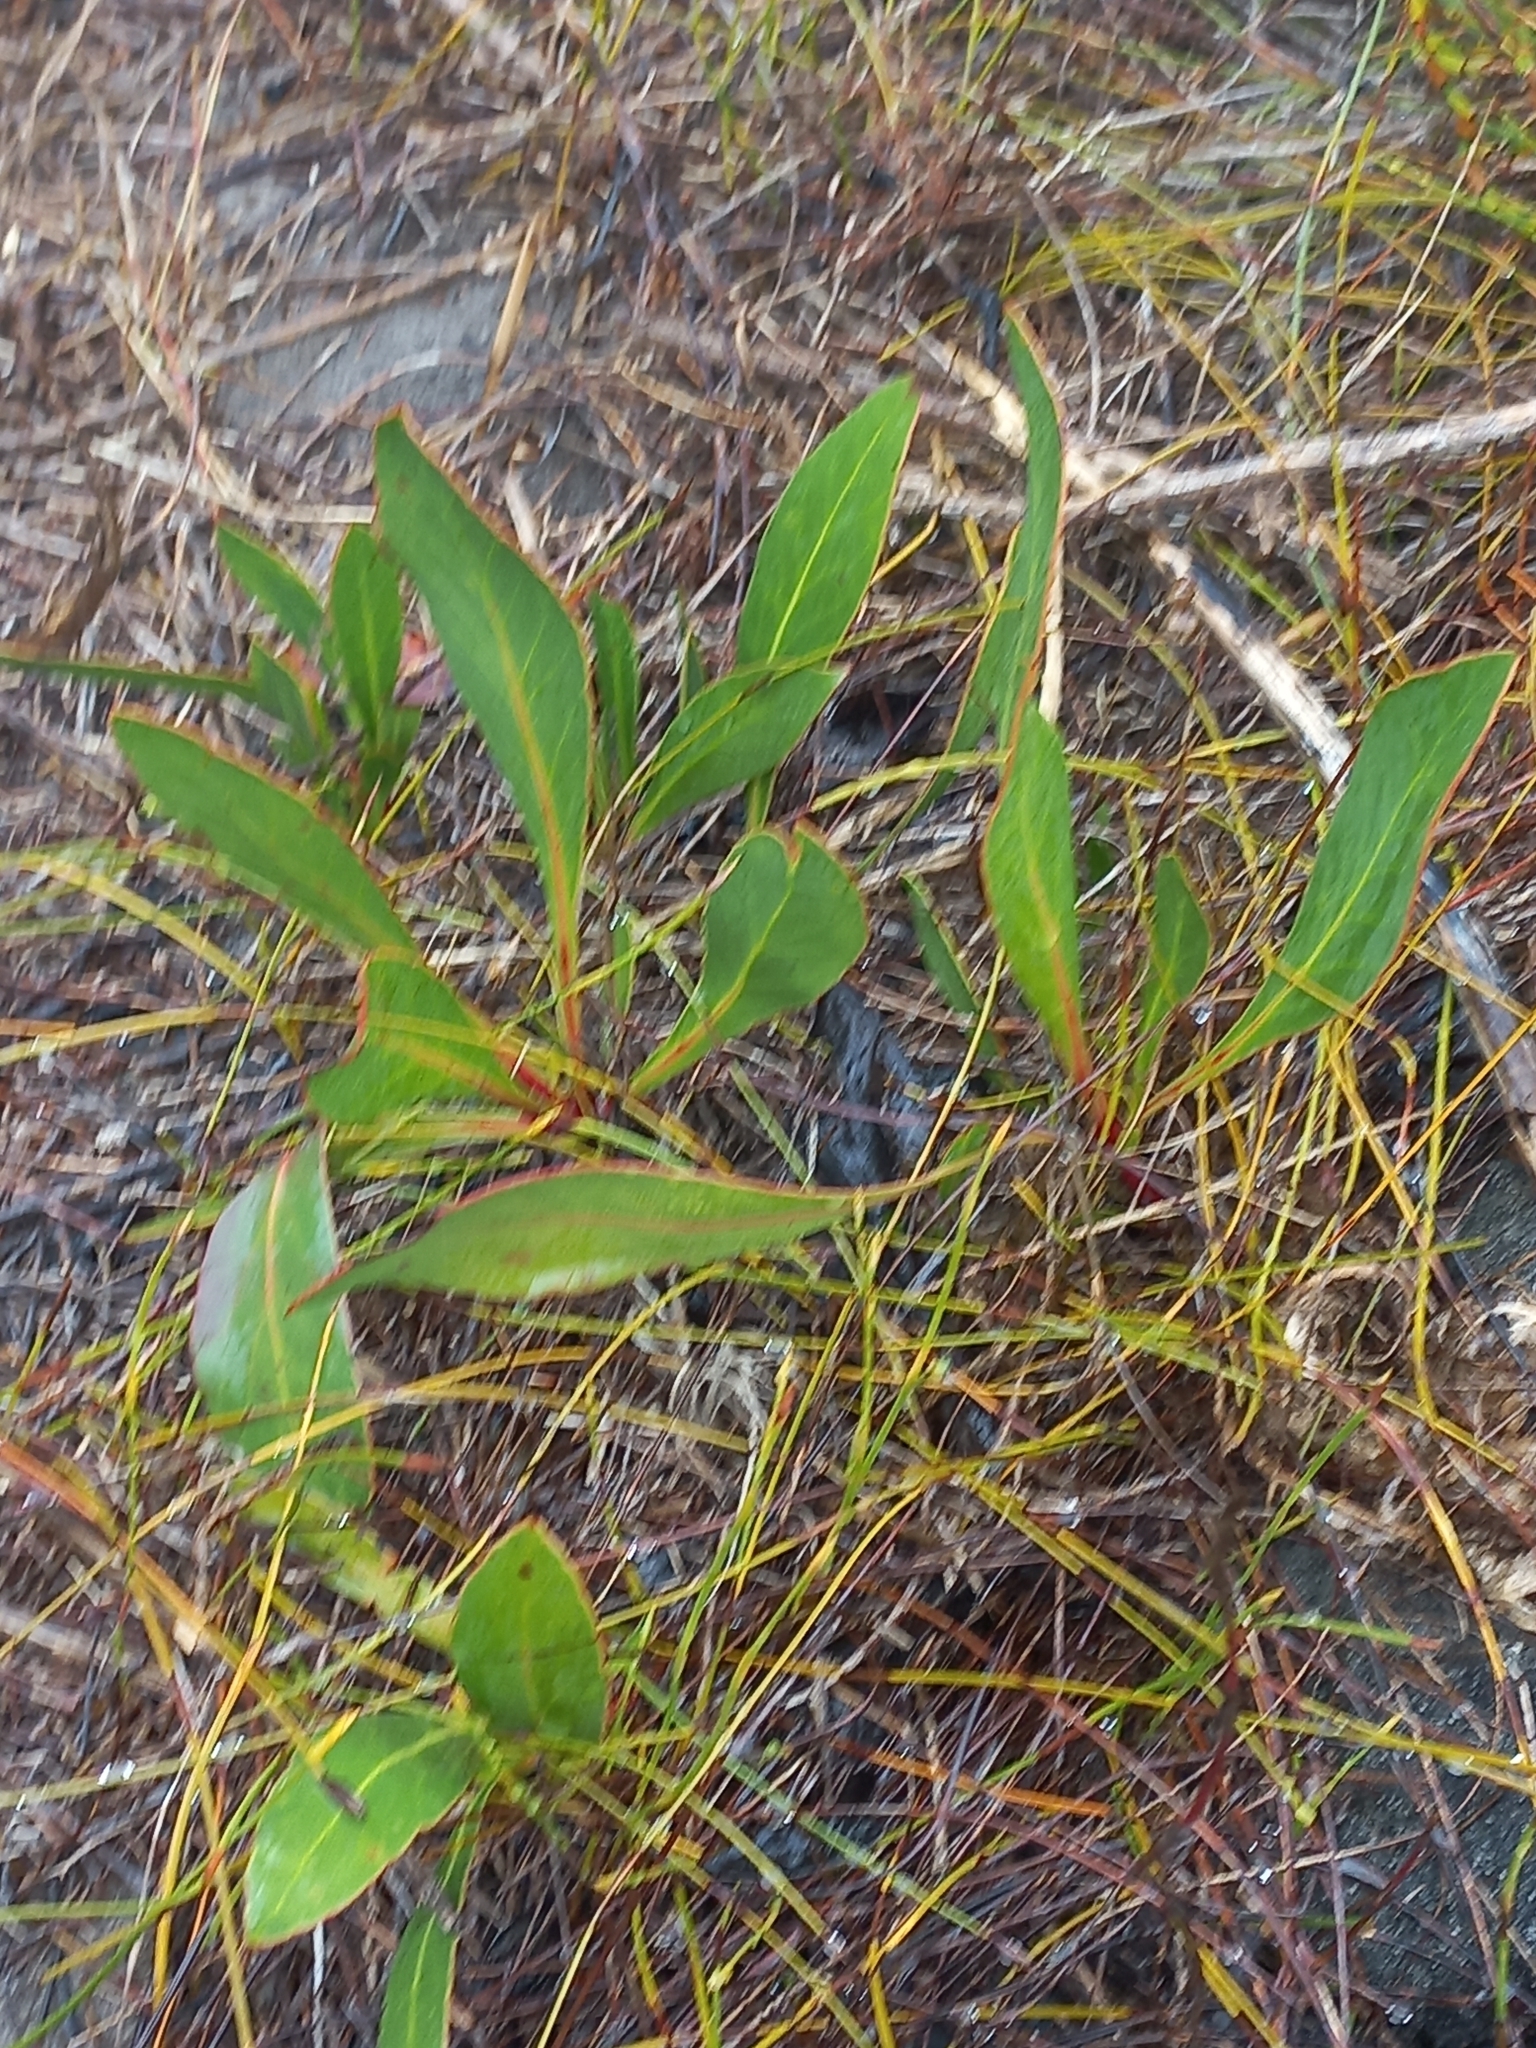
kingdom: Plantae
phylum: Tracheophyta
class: Magnoliopsida
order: Proteales
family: Proteaceae
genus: Protea
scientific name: Protea acaulos
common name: Common ground sugarbush
